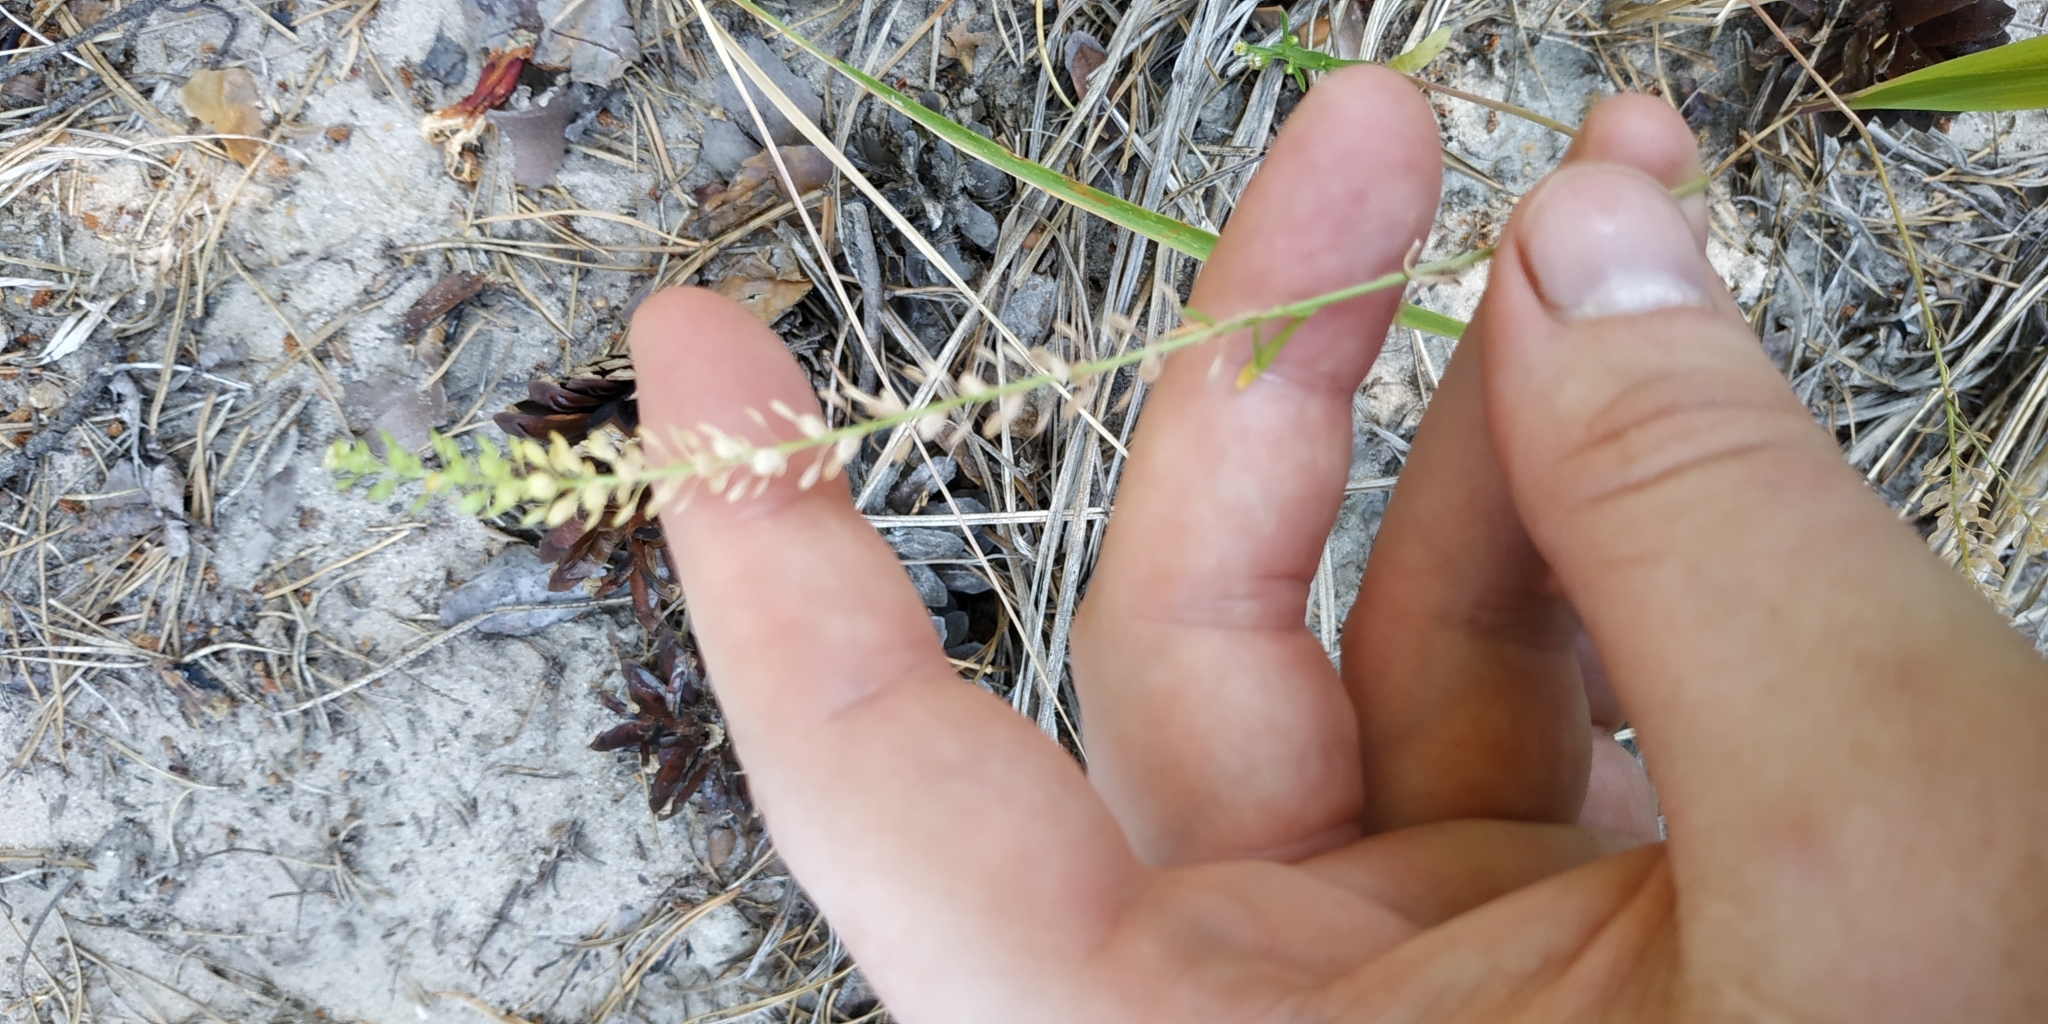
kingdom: Plantae
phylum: Tracheophyta
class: Magnoliopsida
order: Brassicales
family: Brassicaceae
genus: Lepidium
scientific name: Lepidium densiflorum
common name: Miner's pepperwort
